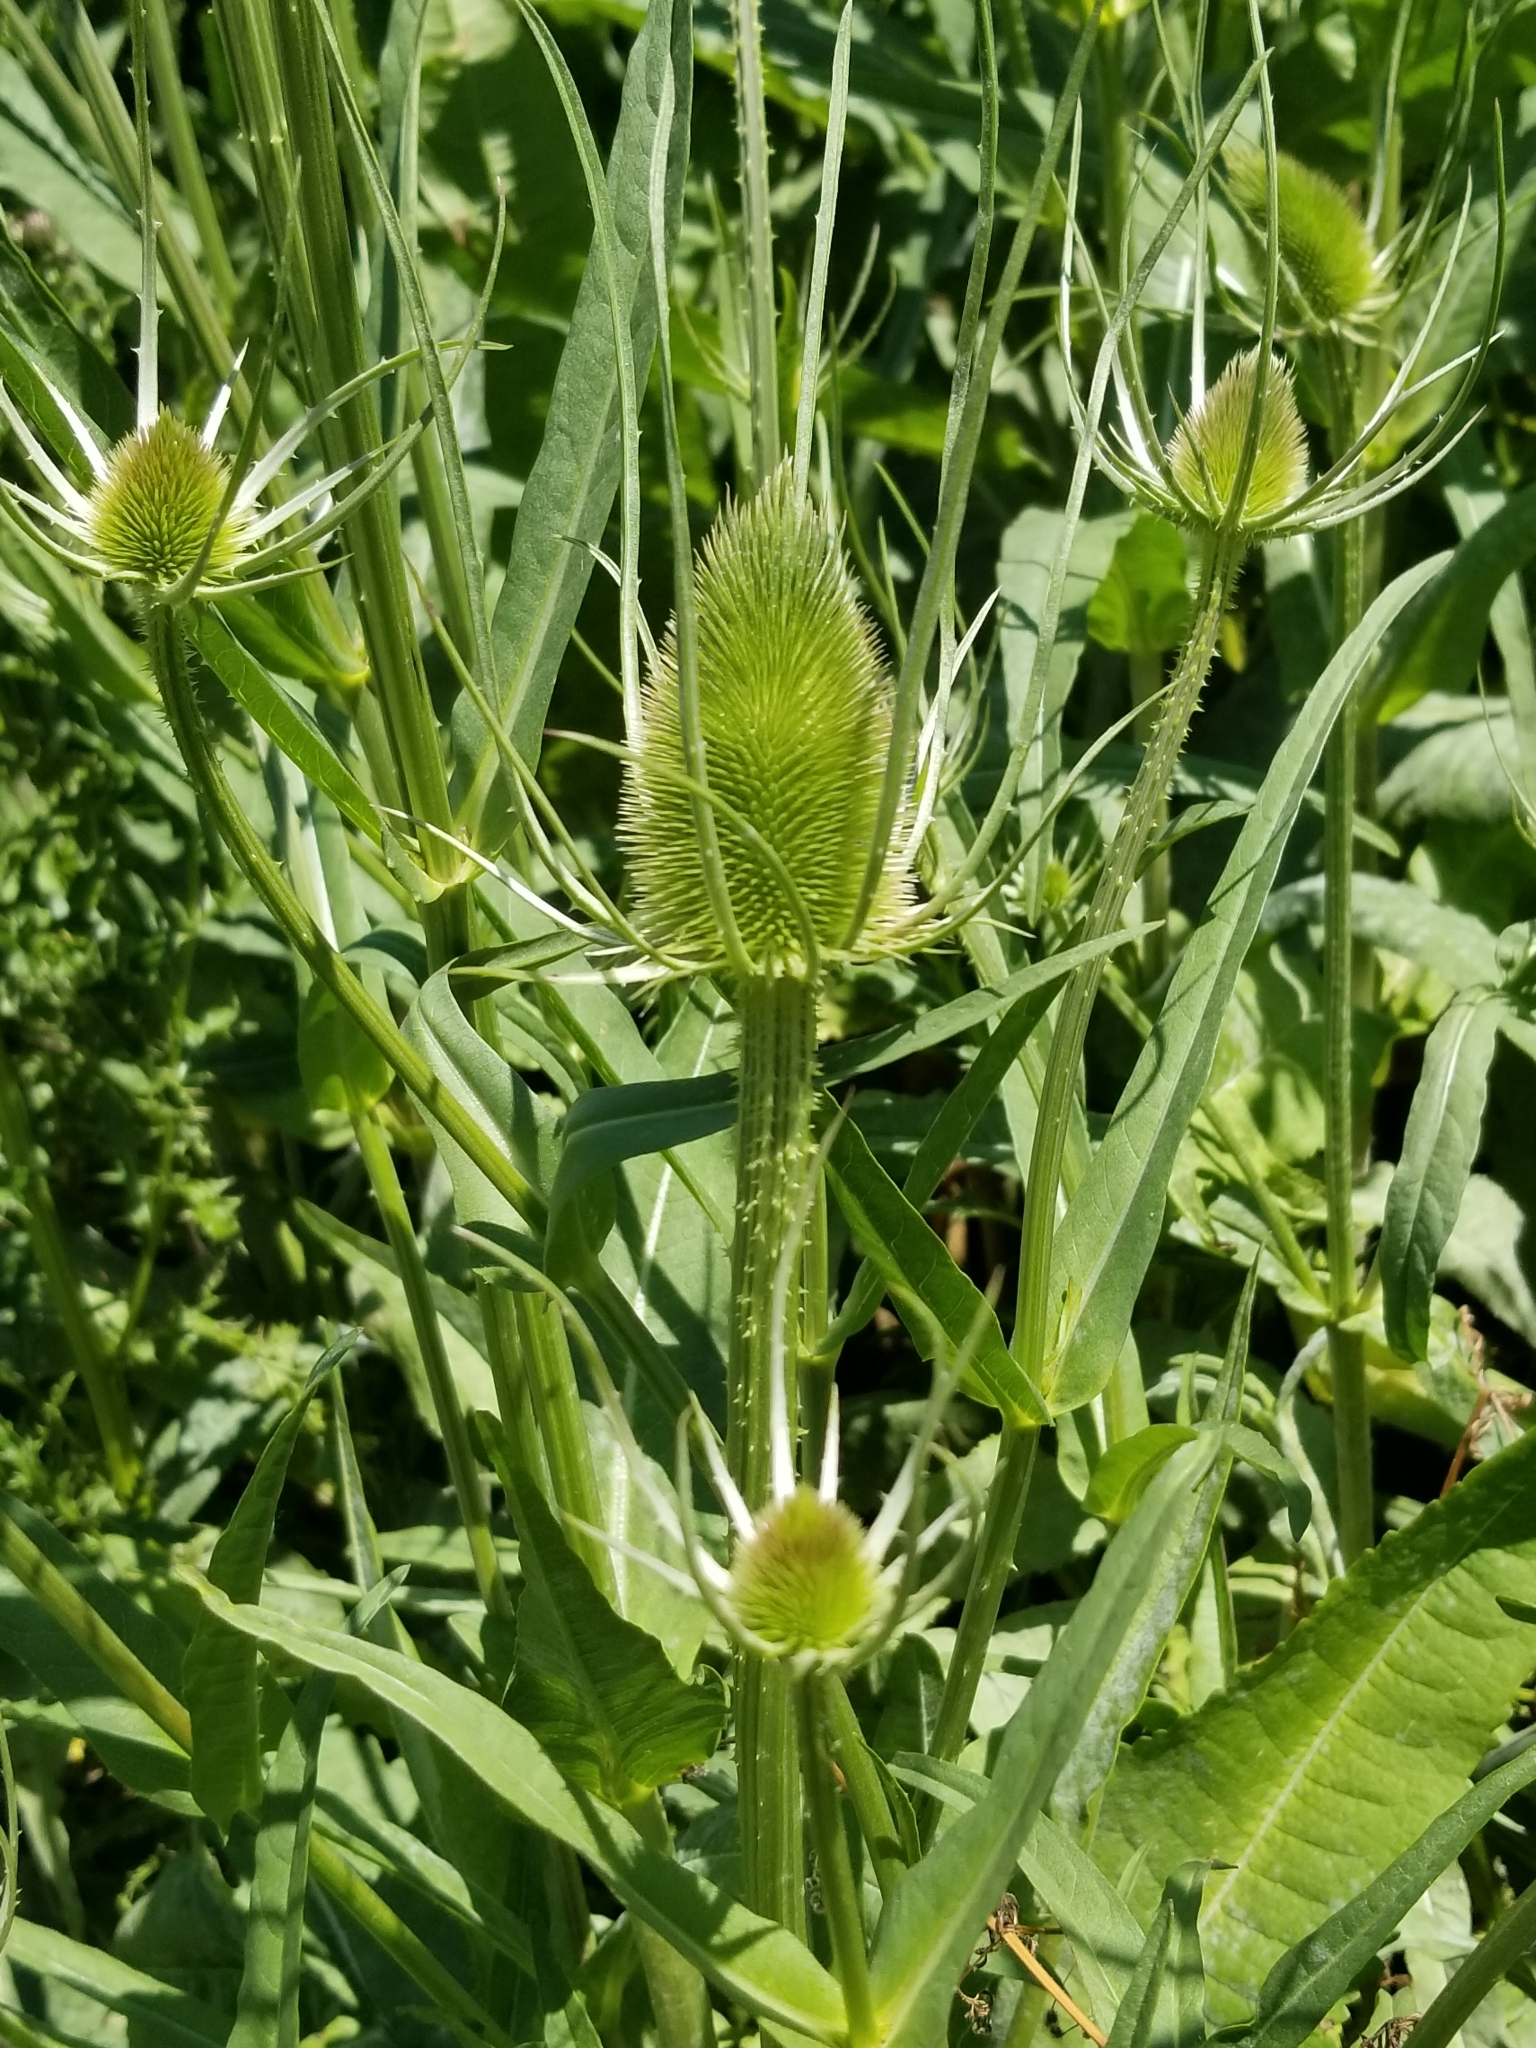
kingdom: Plantae
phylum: Tracheophyta
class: Magnoliopsida
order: Dipsacales
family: Caprifoliaceae
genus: Dipsacus
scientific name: Dipsacus fullonum
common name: Teasel
